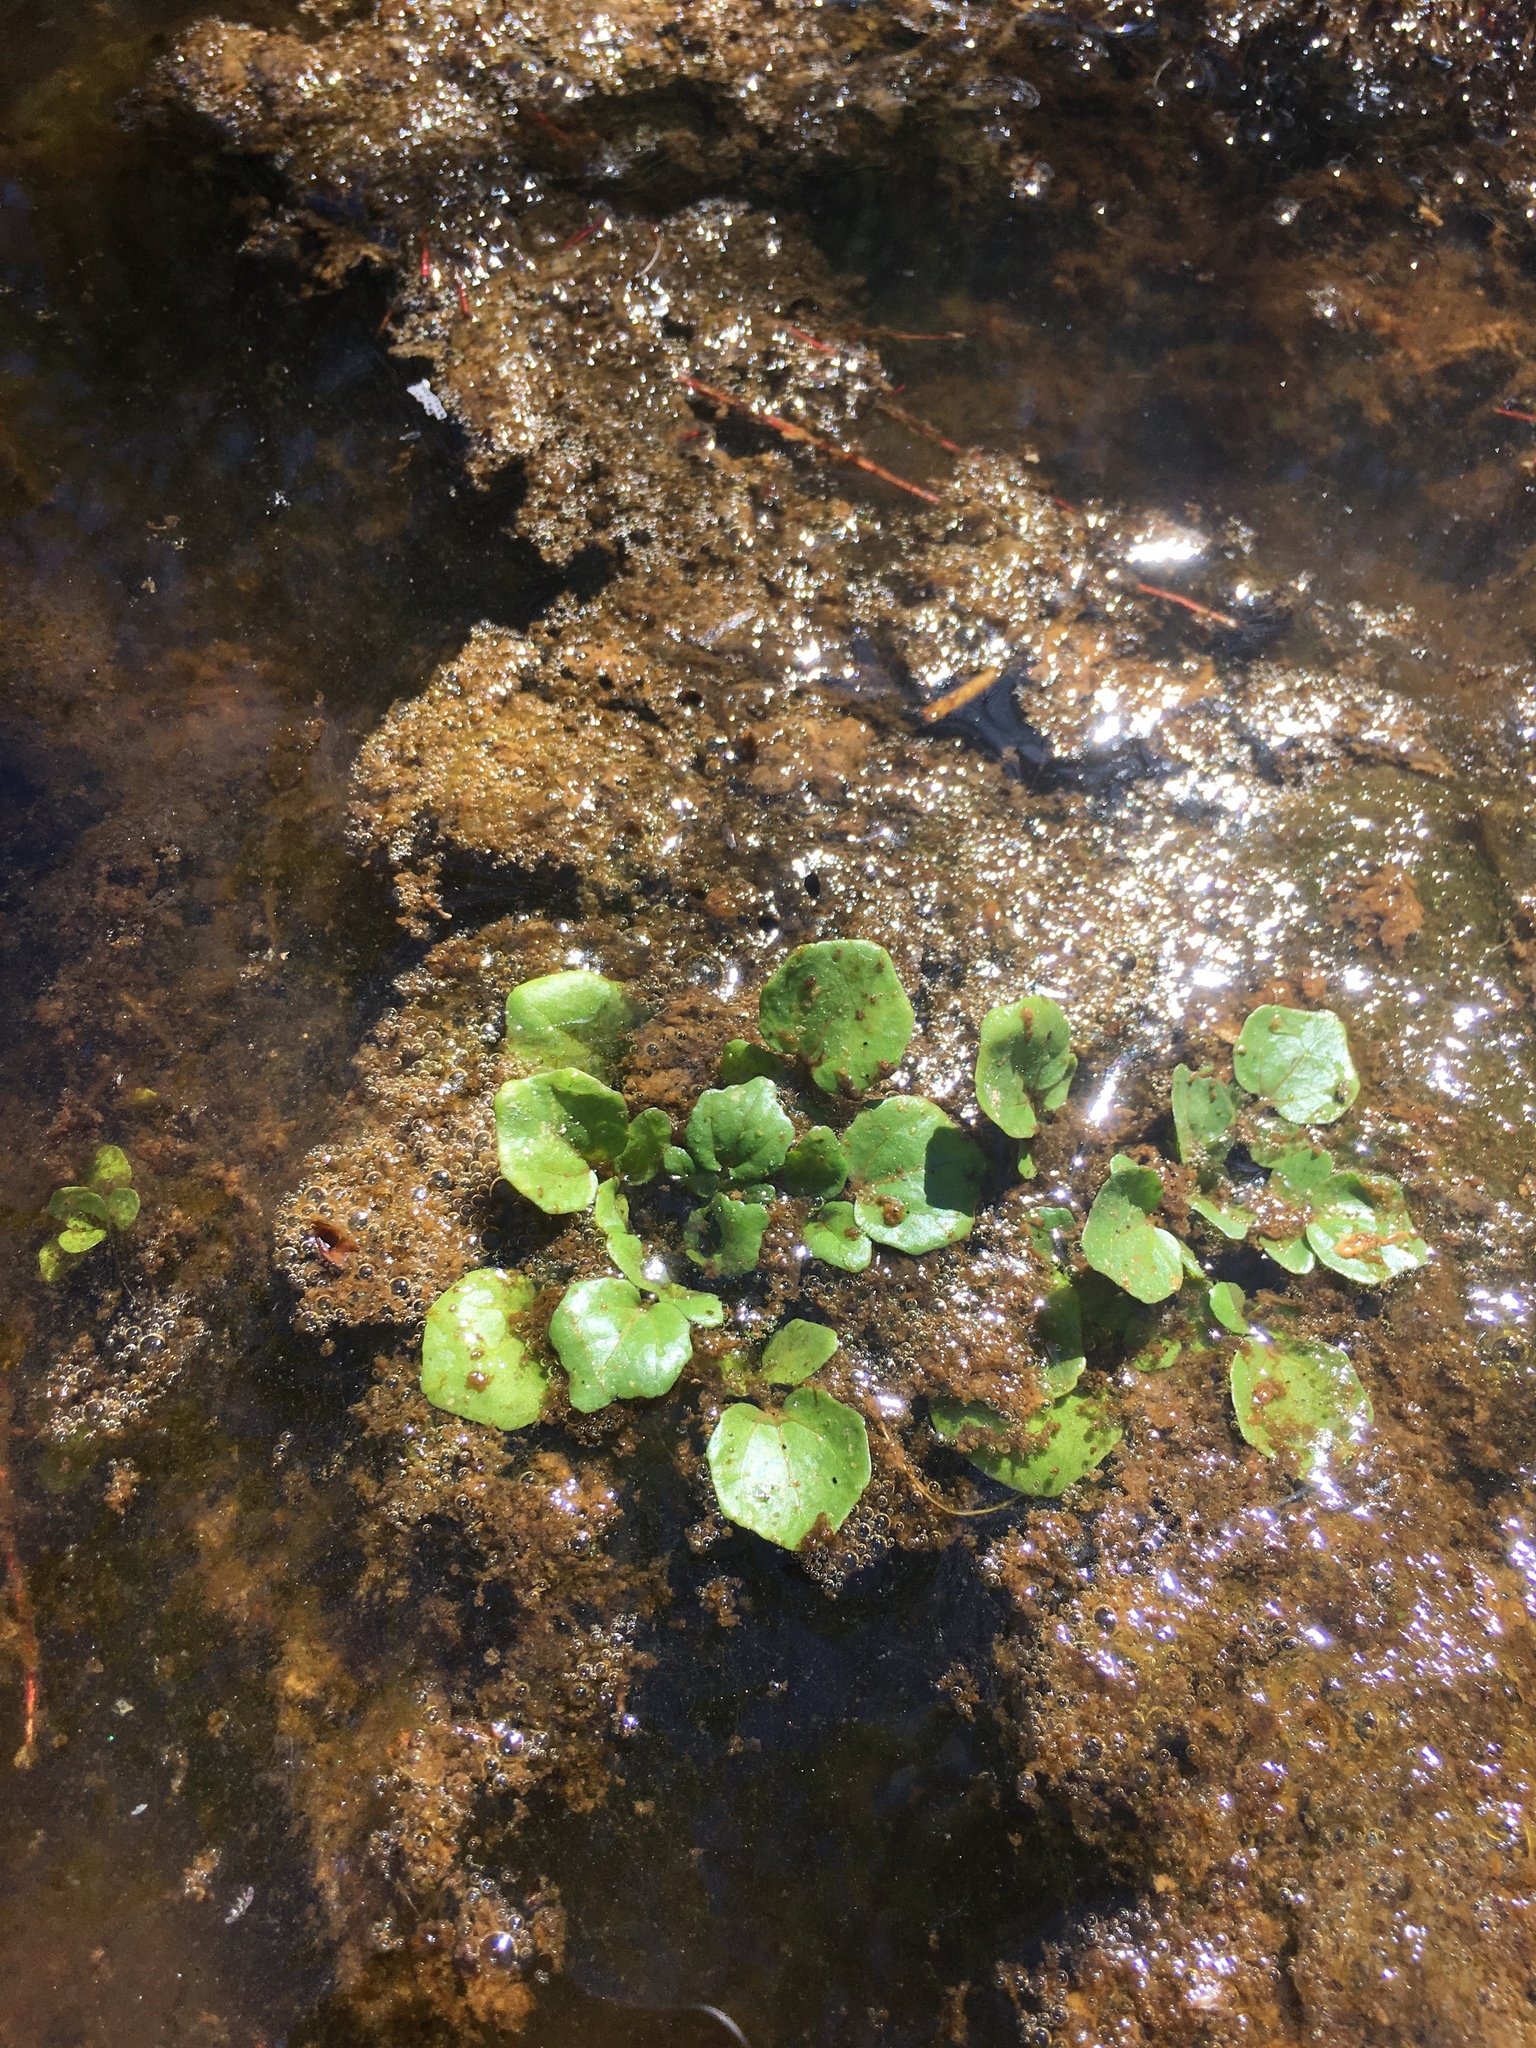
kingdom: Plantae
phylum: Tracheophyta
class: Magnoliopsida
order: Brassicales
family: Brassicaceae
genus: Nasturtium
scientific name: Nasturtium officinale
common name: Watercress
